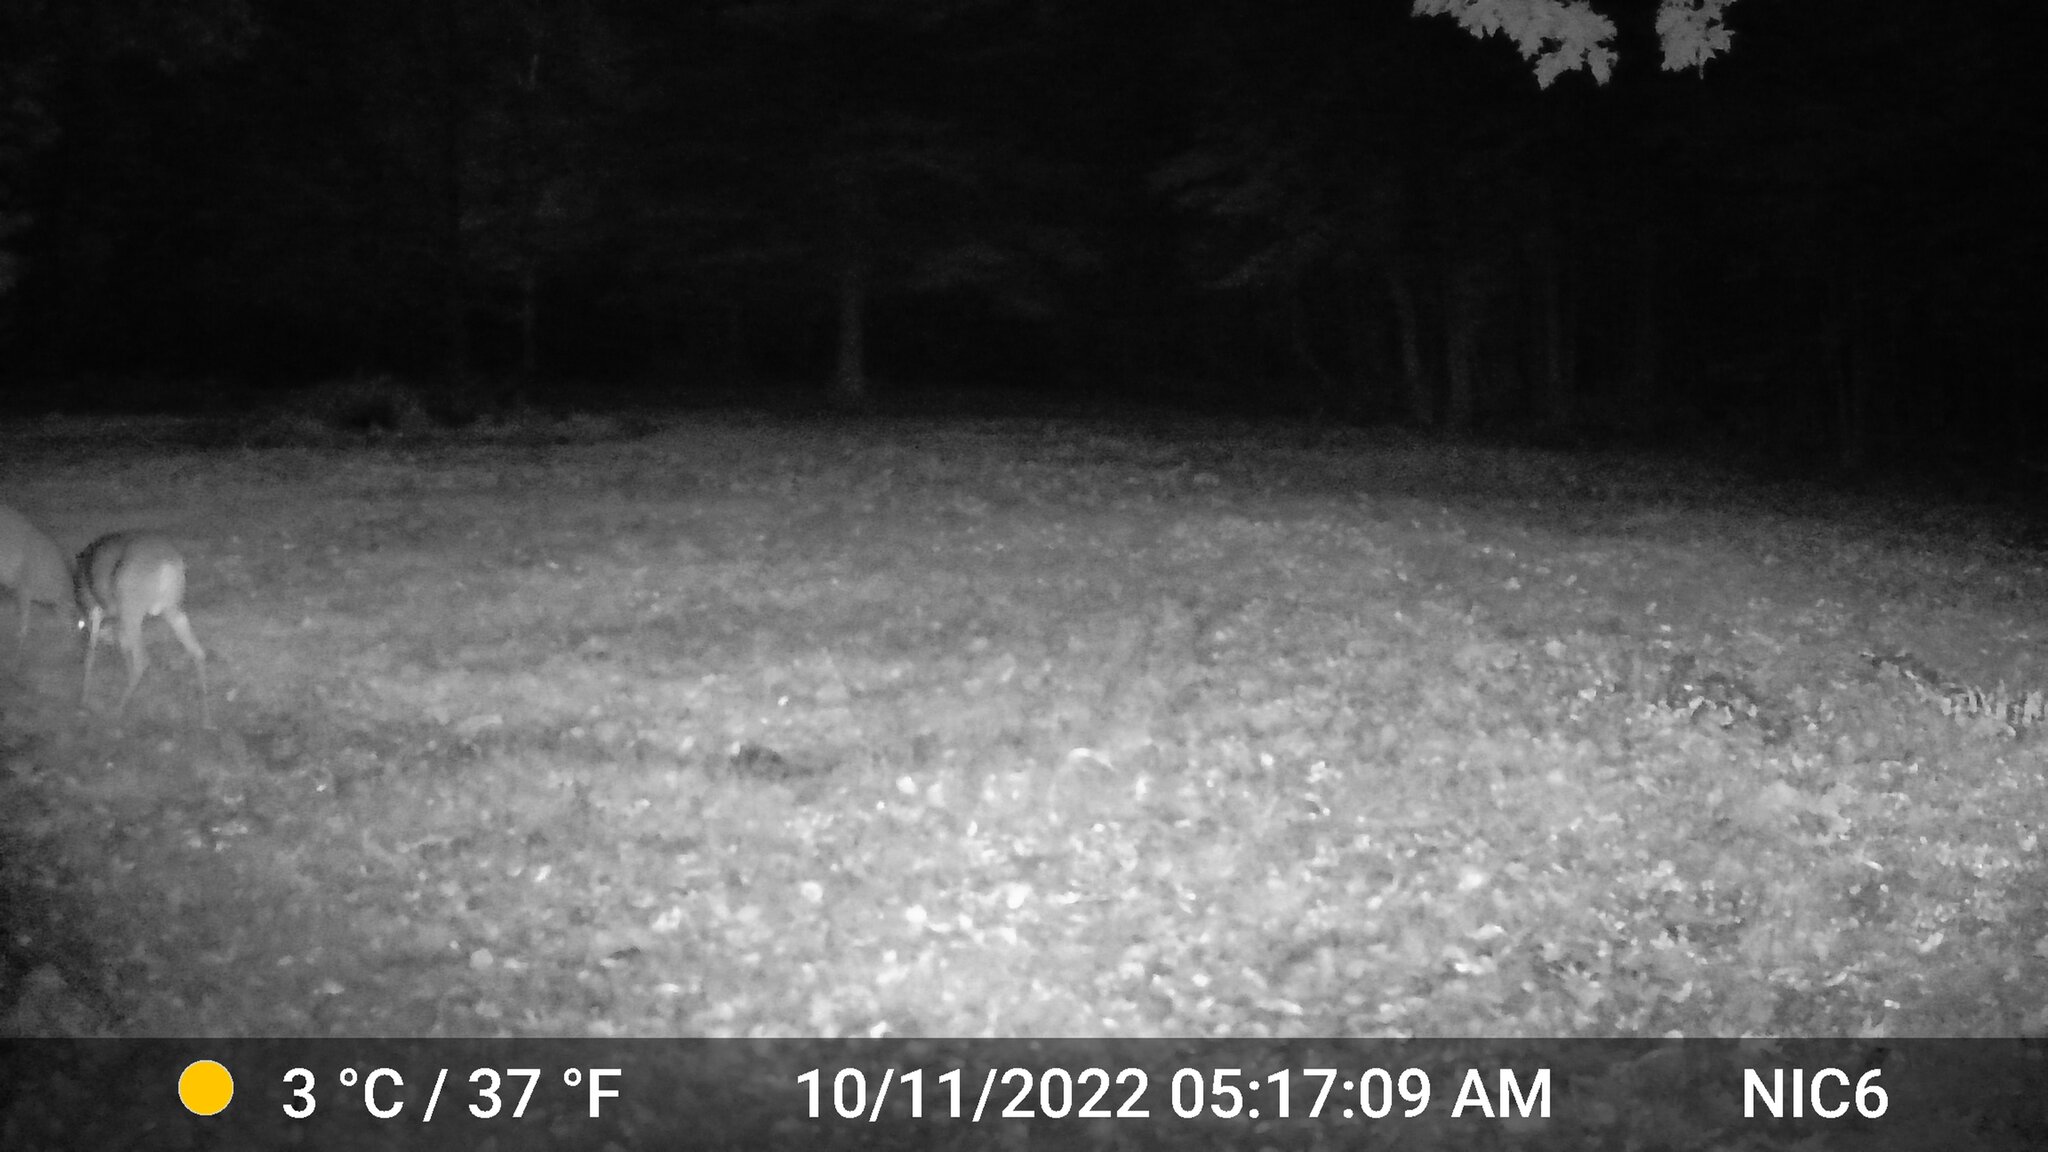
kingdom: Animalia
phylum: Chordata
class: Mammalia
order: Artiodactyla
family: Cervidae
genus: Odocoileus
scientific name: Odocoileus virginianus
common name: White-tailed deer
